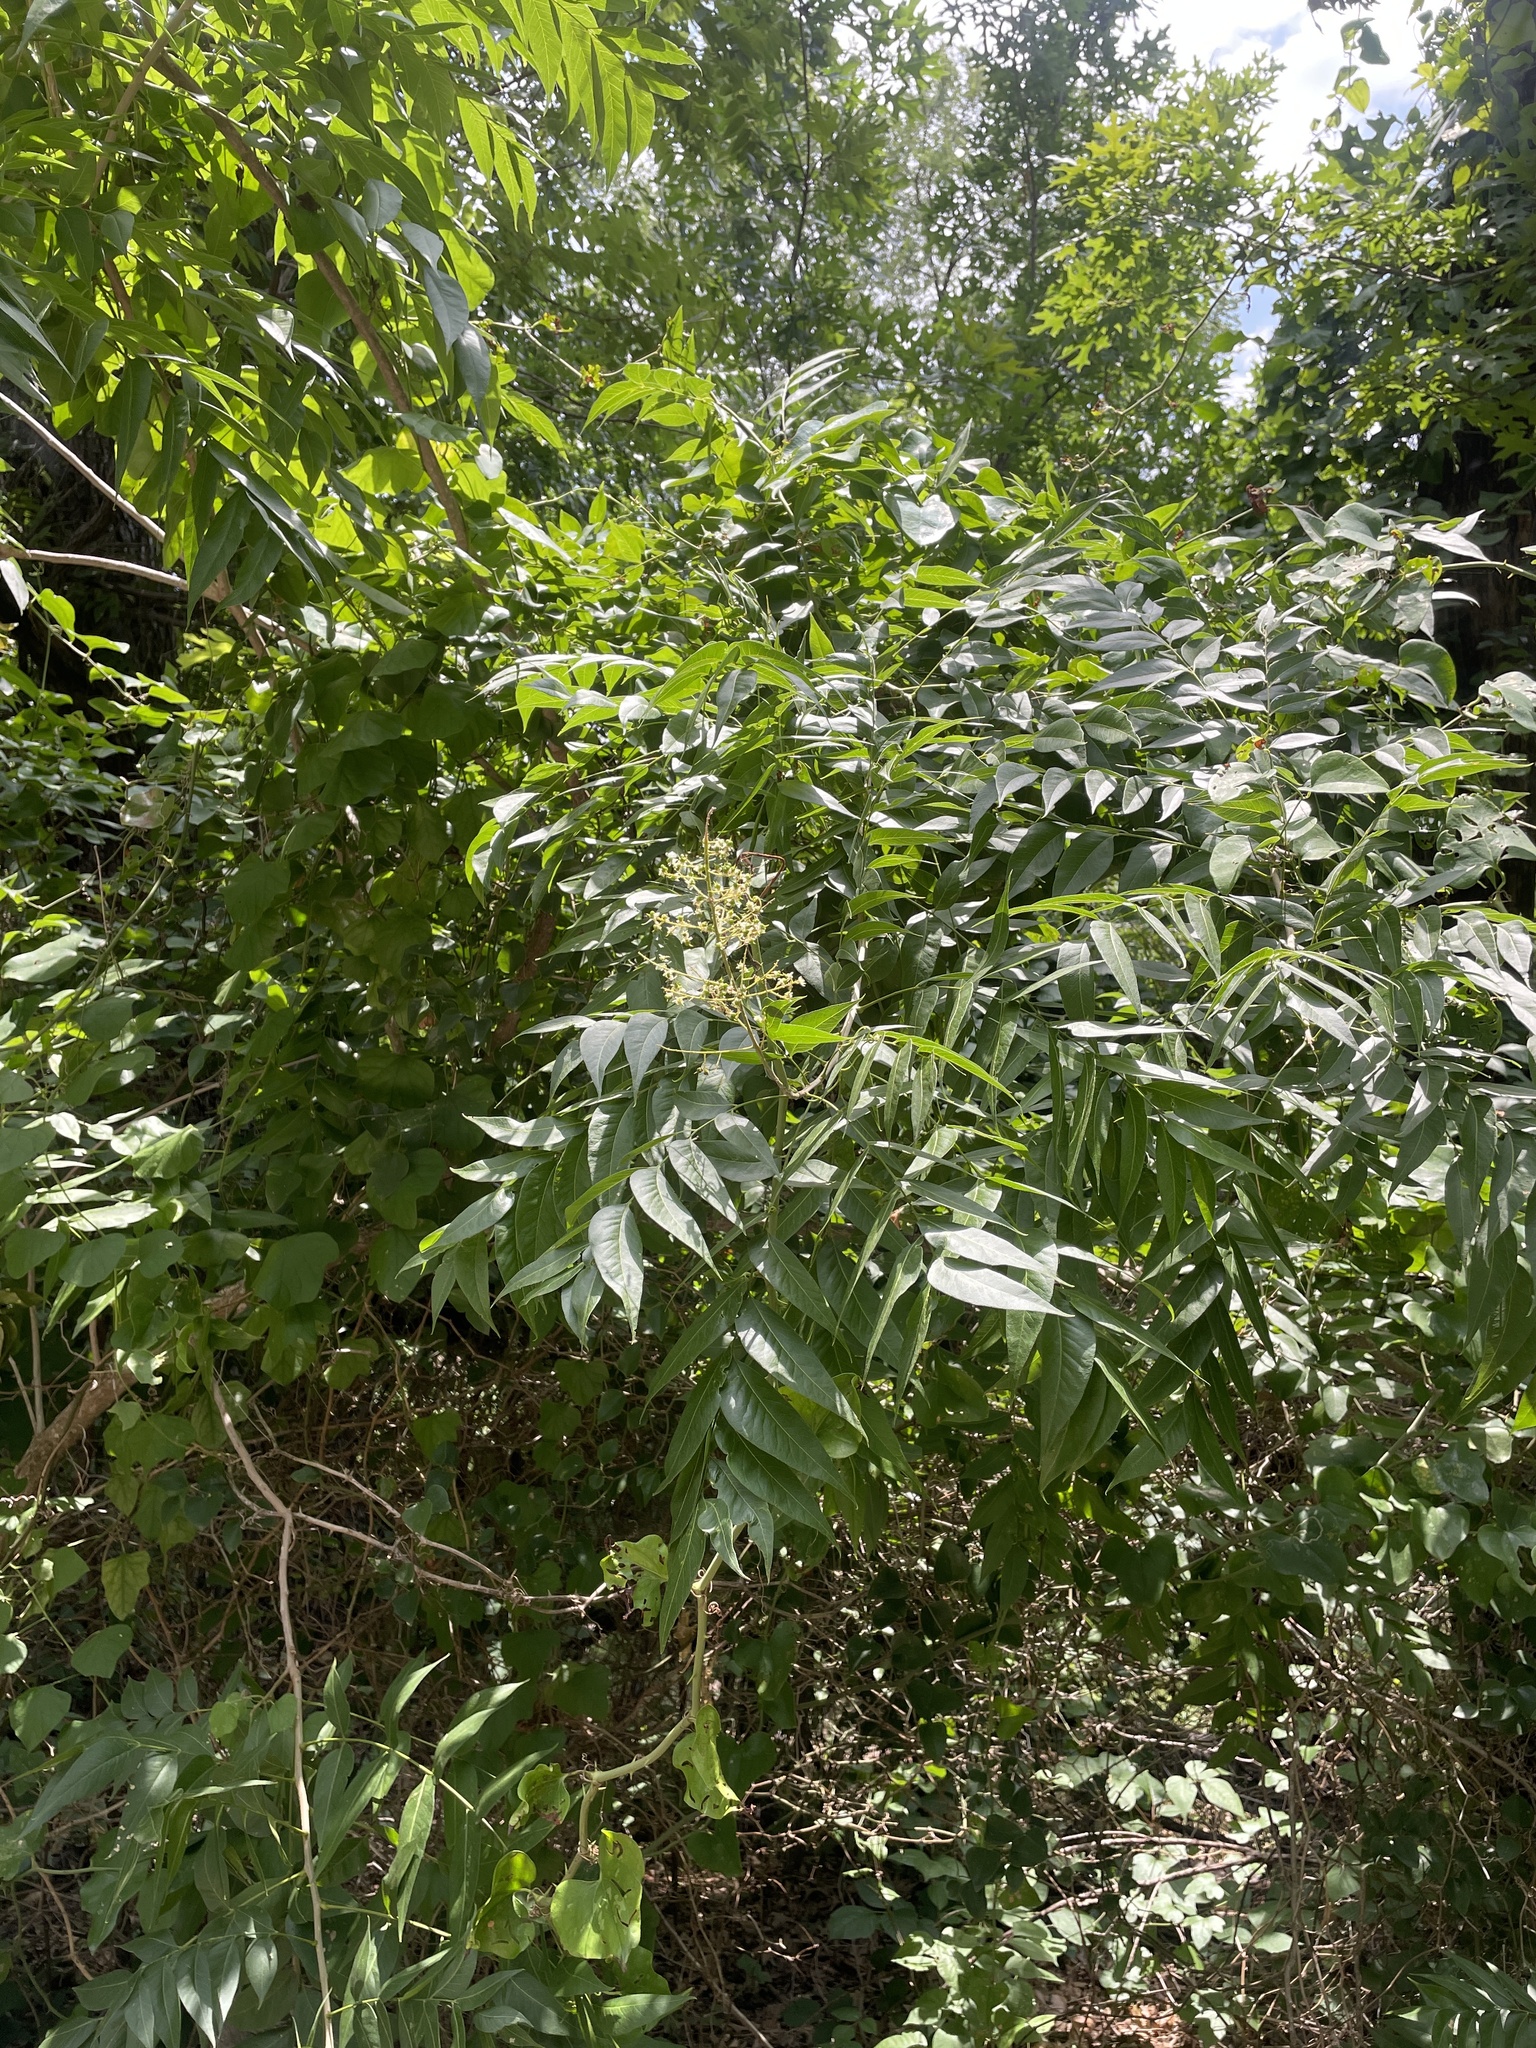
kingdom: Plantae
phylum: Tracheophyta
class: Magnoliopsida
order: Sapindales
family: Sapindaceae
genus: Sapindus
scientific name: Sapindus drummondii
